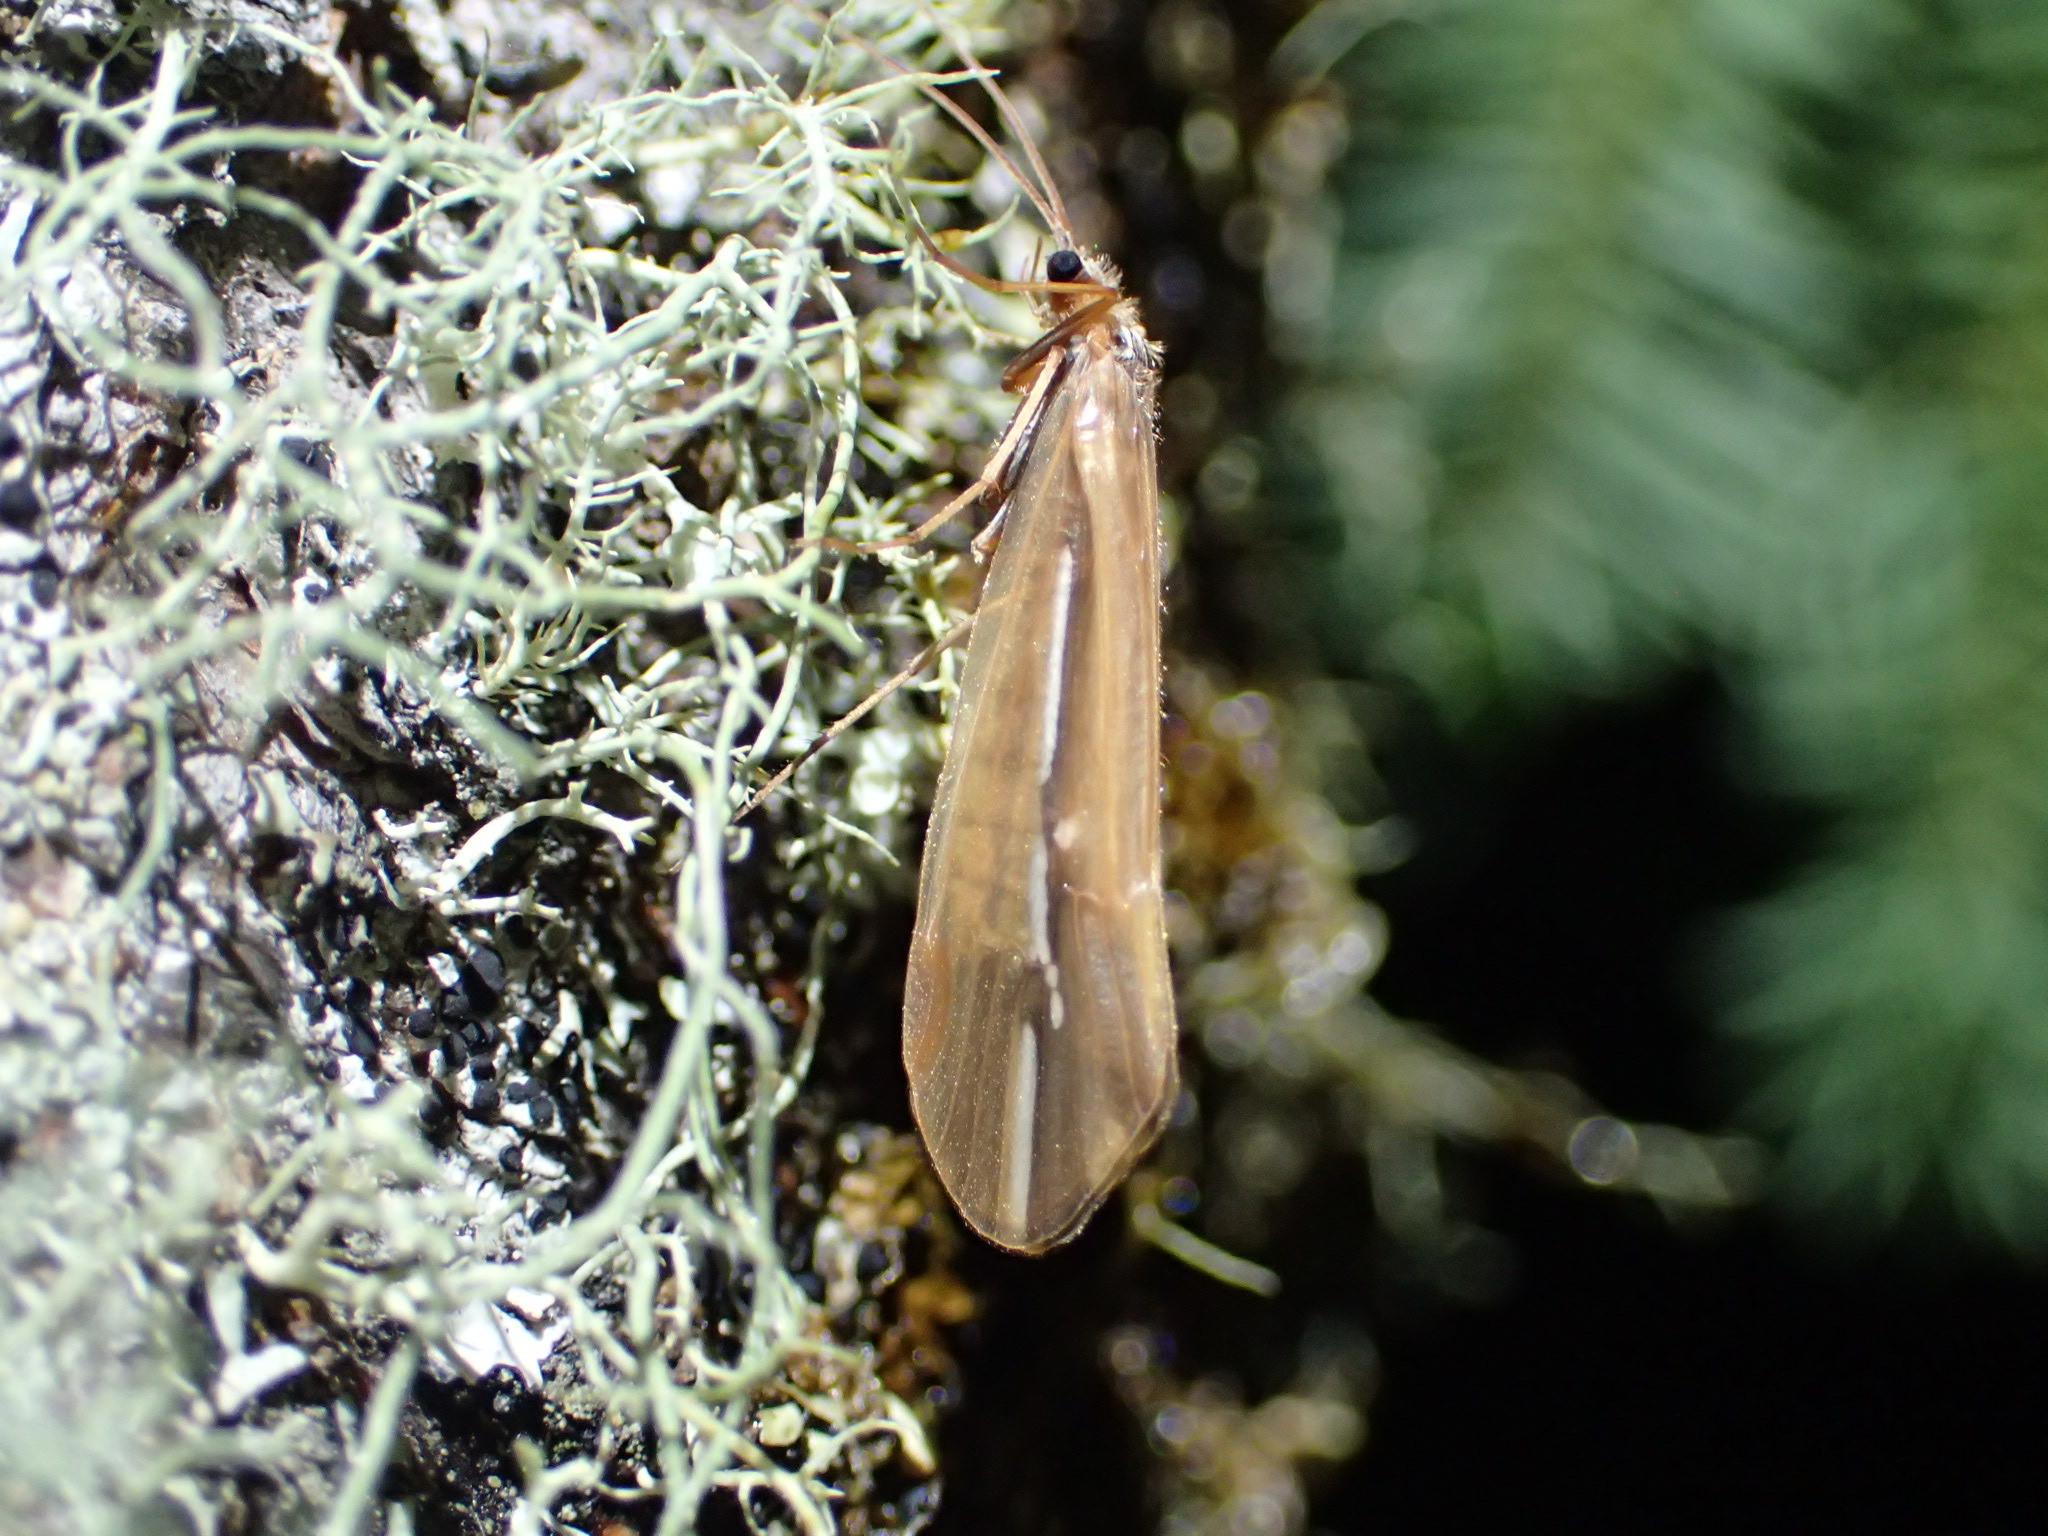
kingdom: Animalia
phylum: Arthropoda
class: Insecta
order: Trichoptera
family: Limnephilidae
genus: Psychoglypha
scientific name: Psychoglypha subborealis
